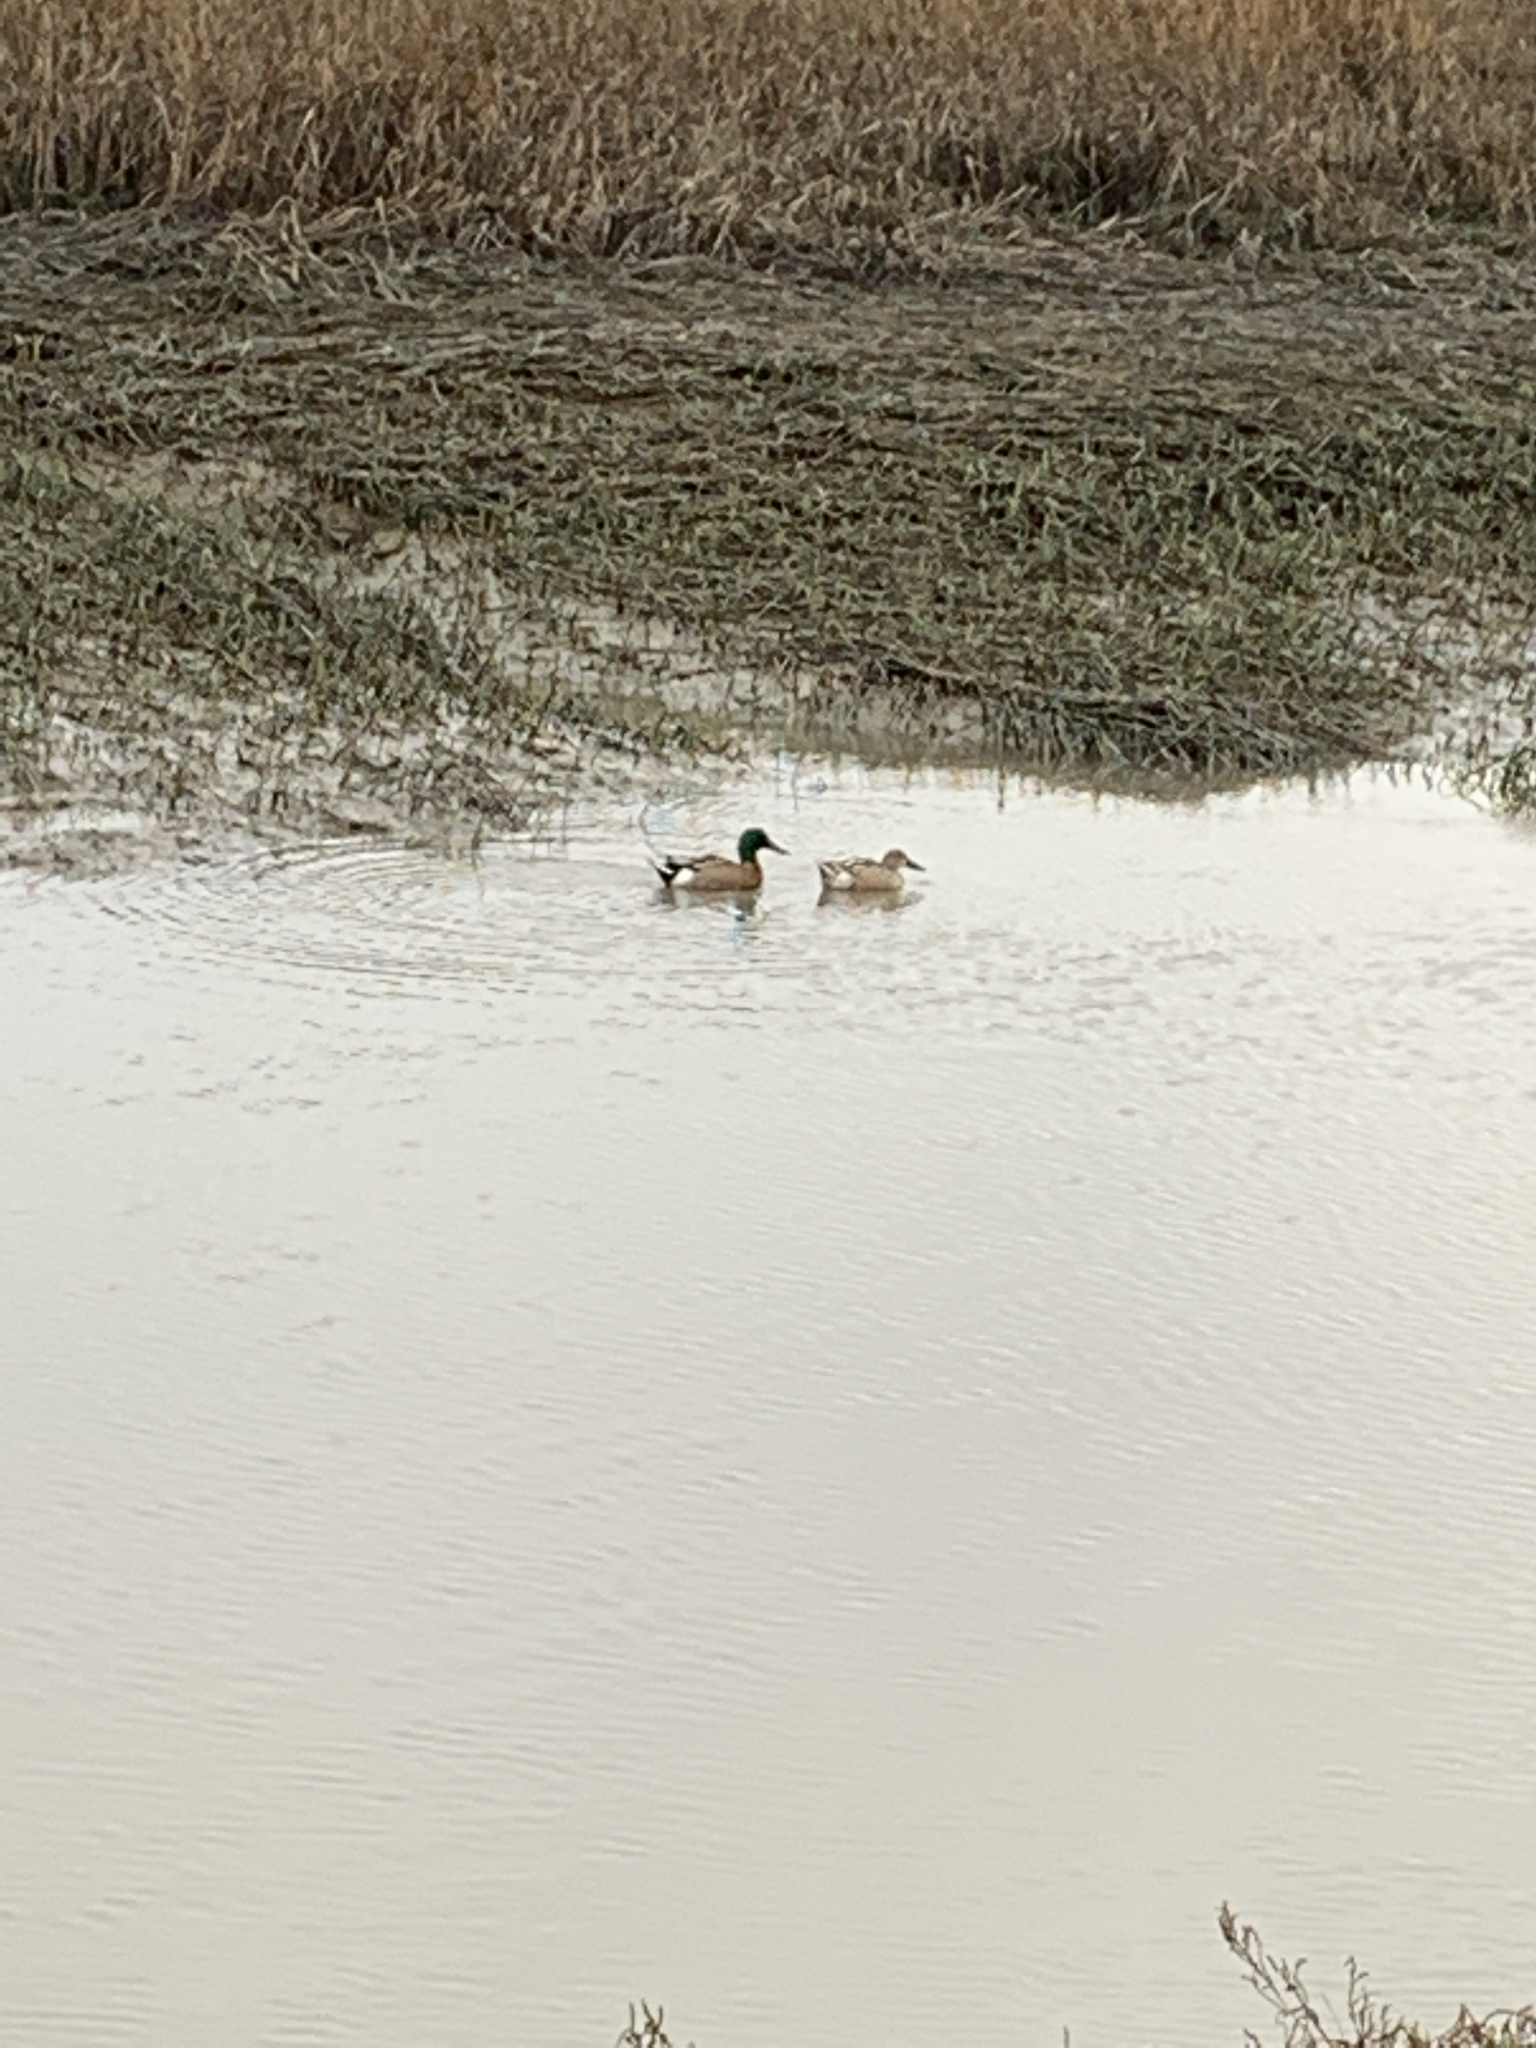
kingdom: Animalia
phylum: Chordata
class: Aves
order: Anseriformes
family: Anatidae
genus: Anas
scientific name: Anas platyrhynchos
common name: Mallard
